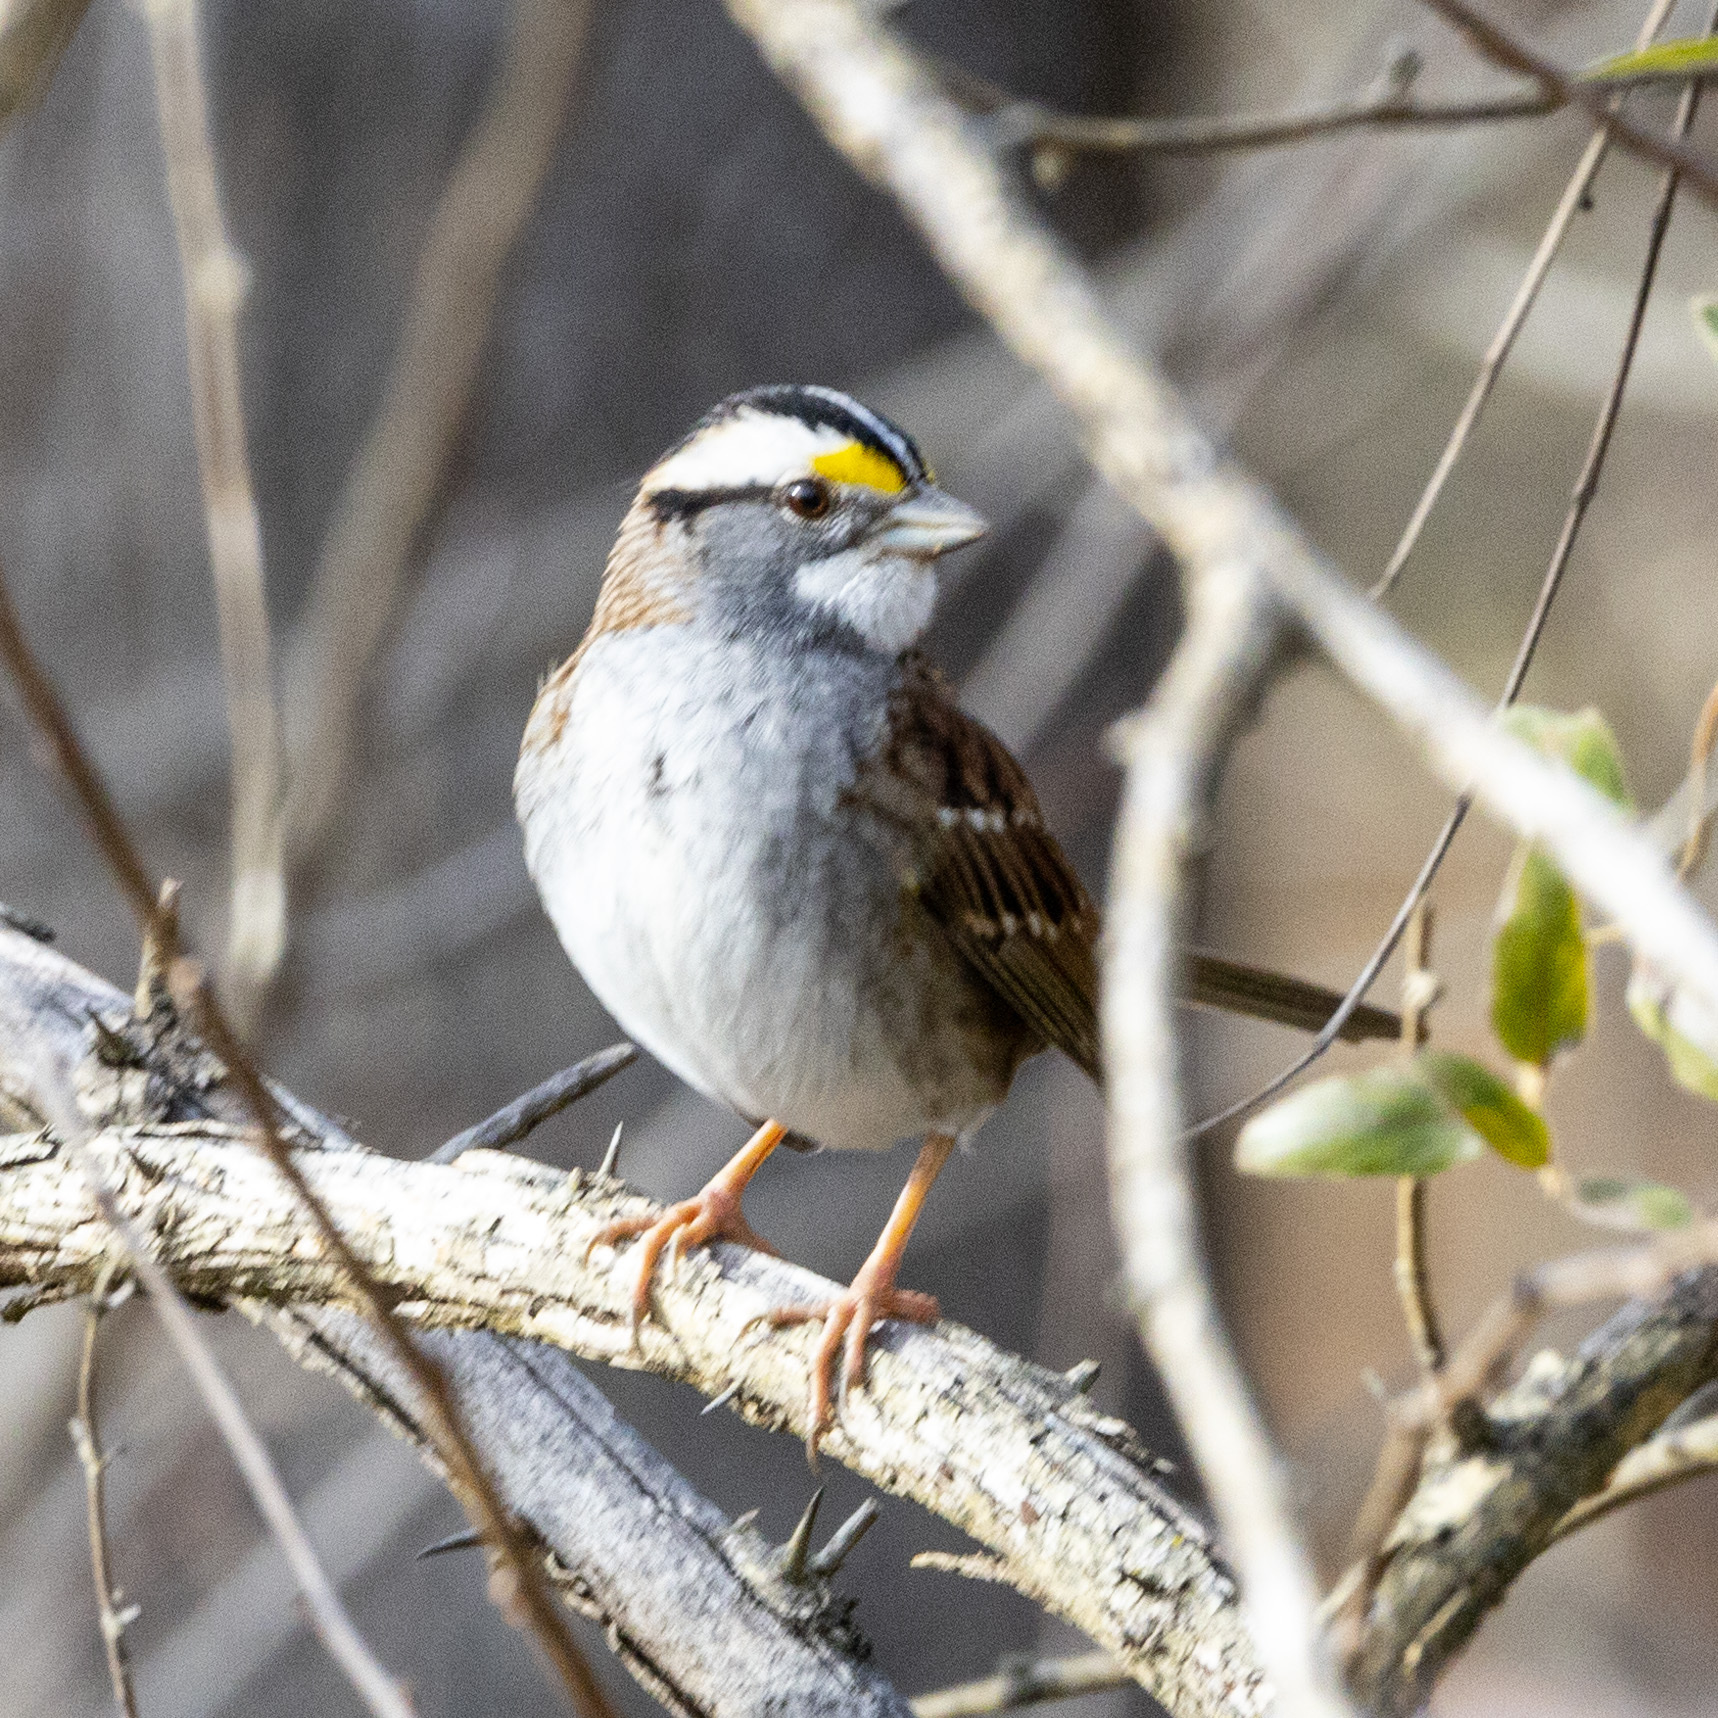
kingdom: Animalia
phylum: Chordata
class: Aves
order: Passeriformes
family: Passerellidae
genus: Zonotrichia
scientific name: Zonotrichia albicollis
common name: White-throated sparrow
